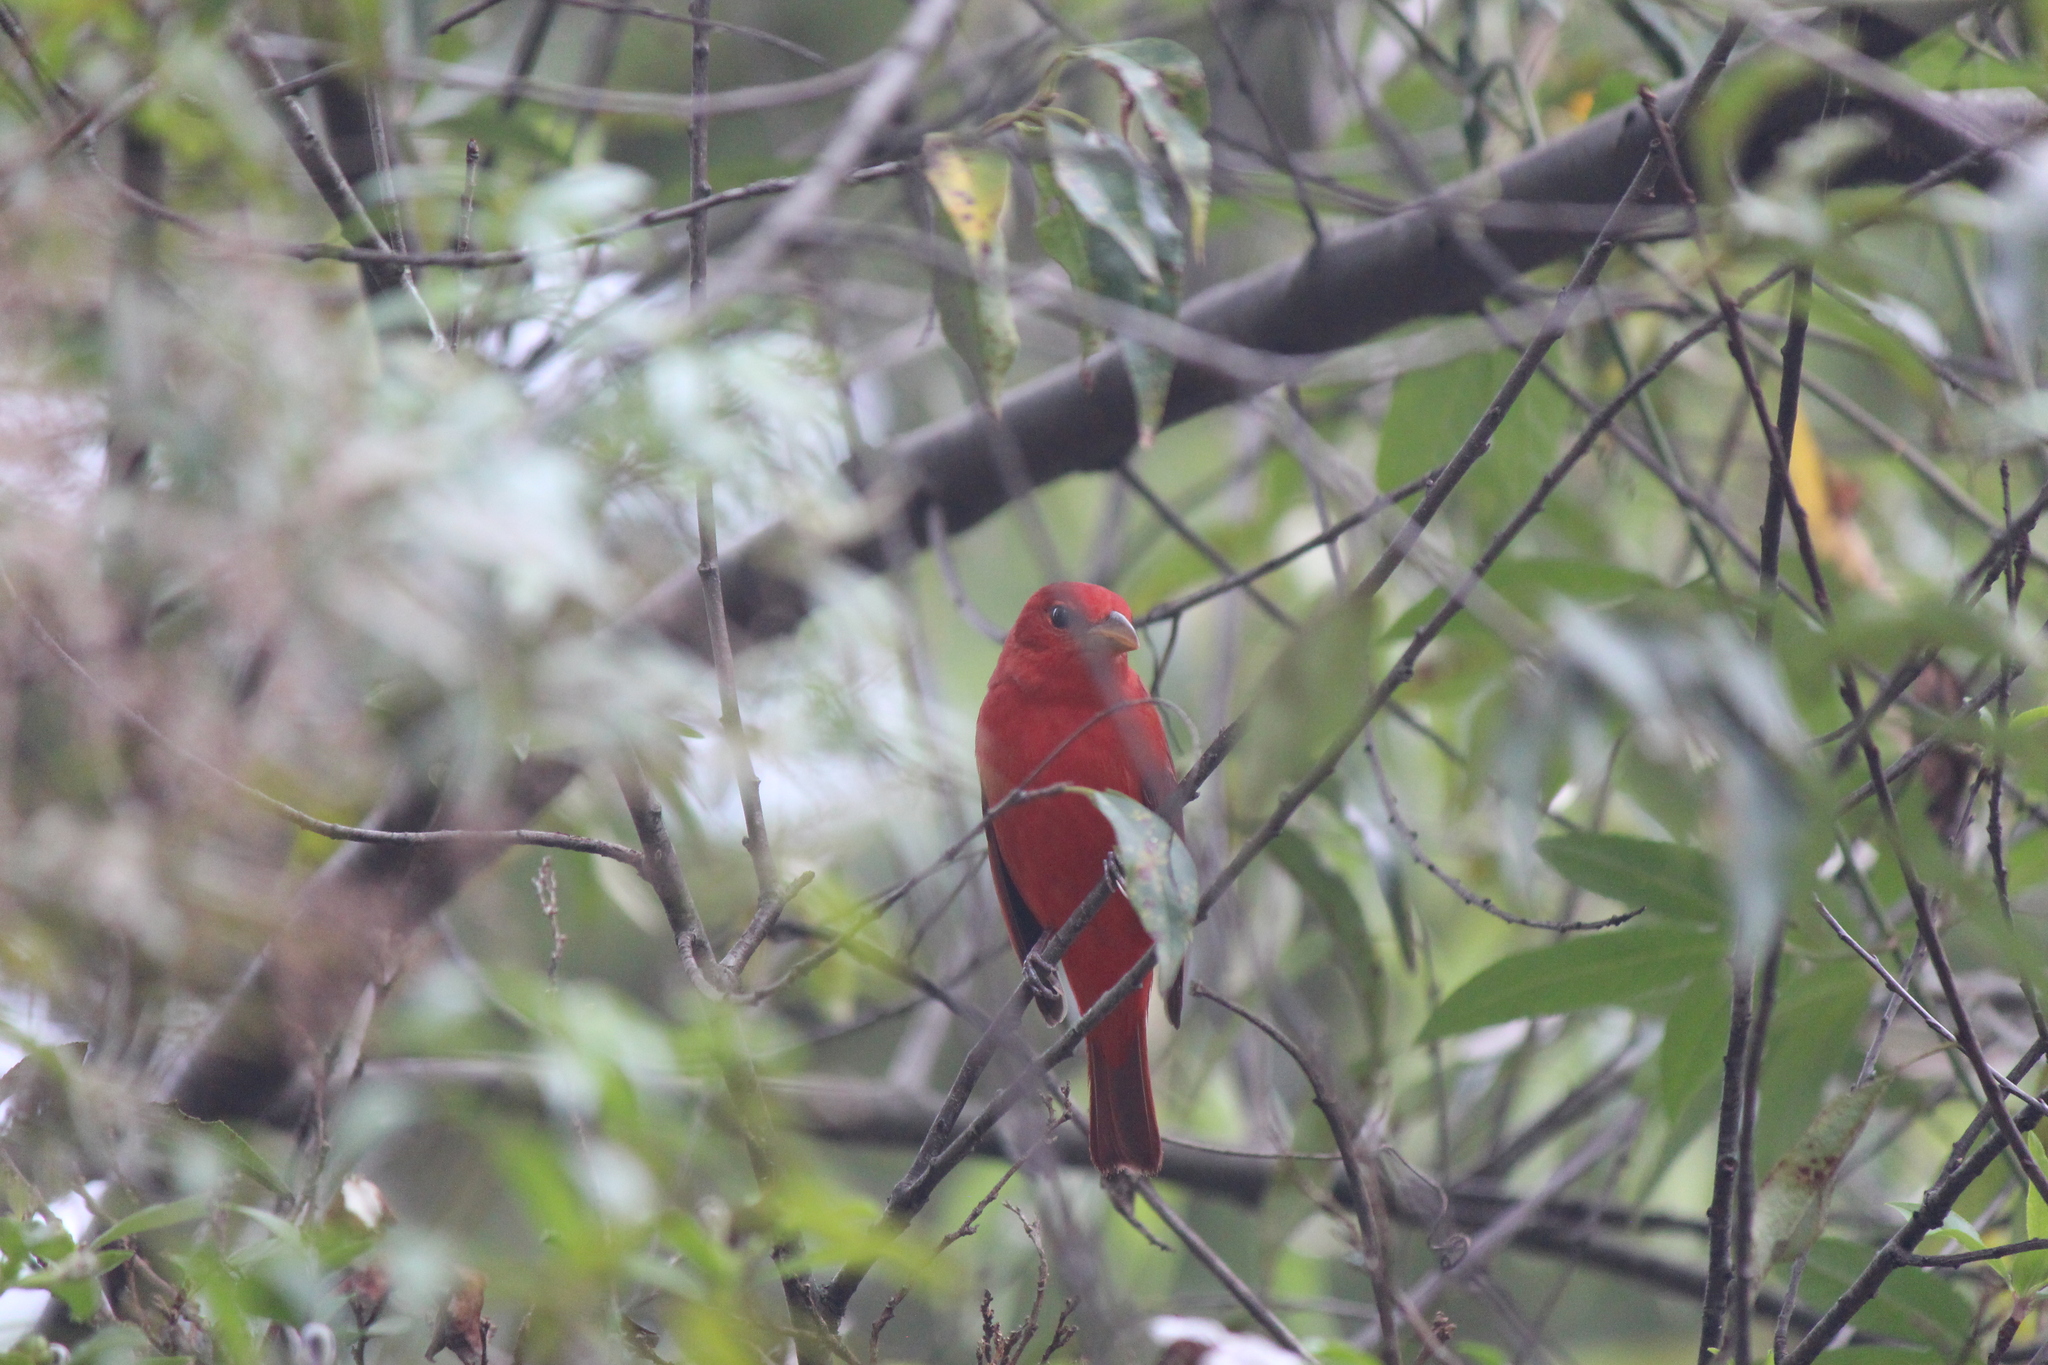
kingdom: Animalia
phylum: Chordata
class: Aves
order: Passeriformes
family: Cardinalidae
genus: Piranga
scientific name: Piranga rubra
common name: Summer tanager
